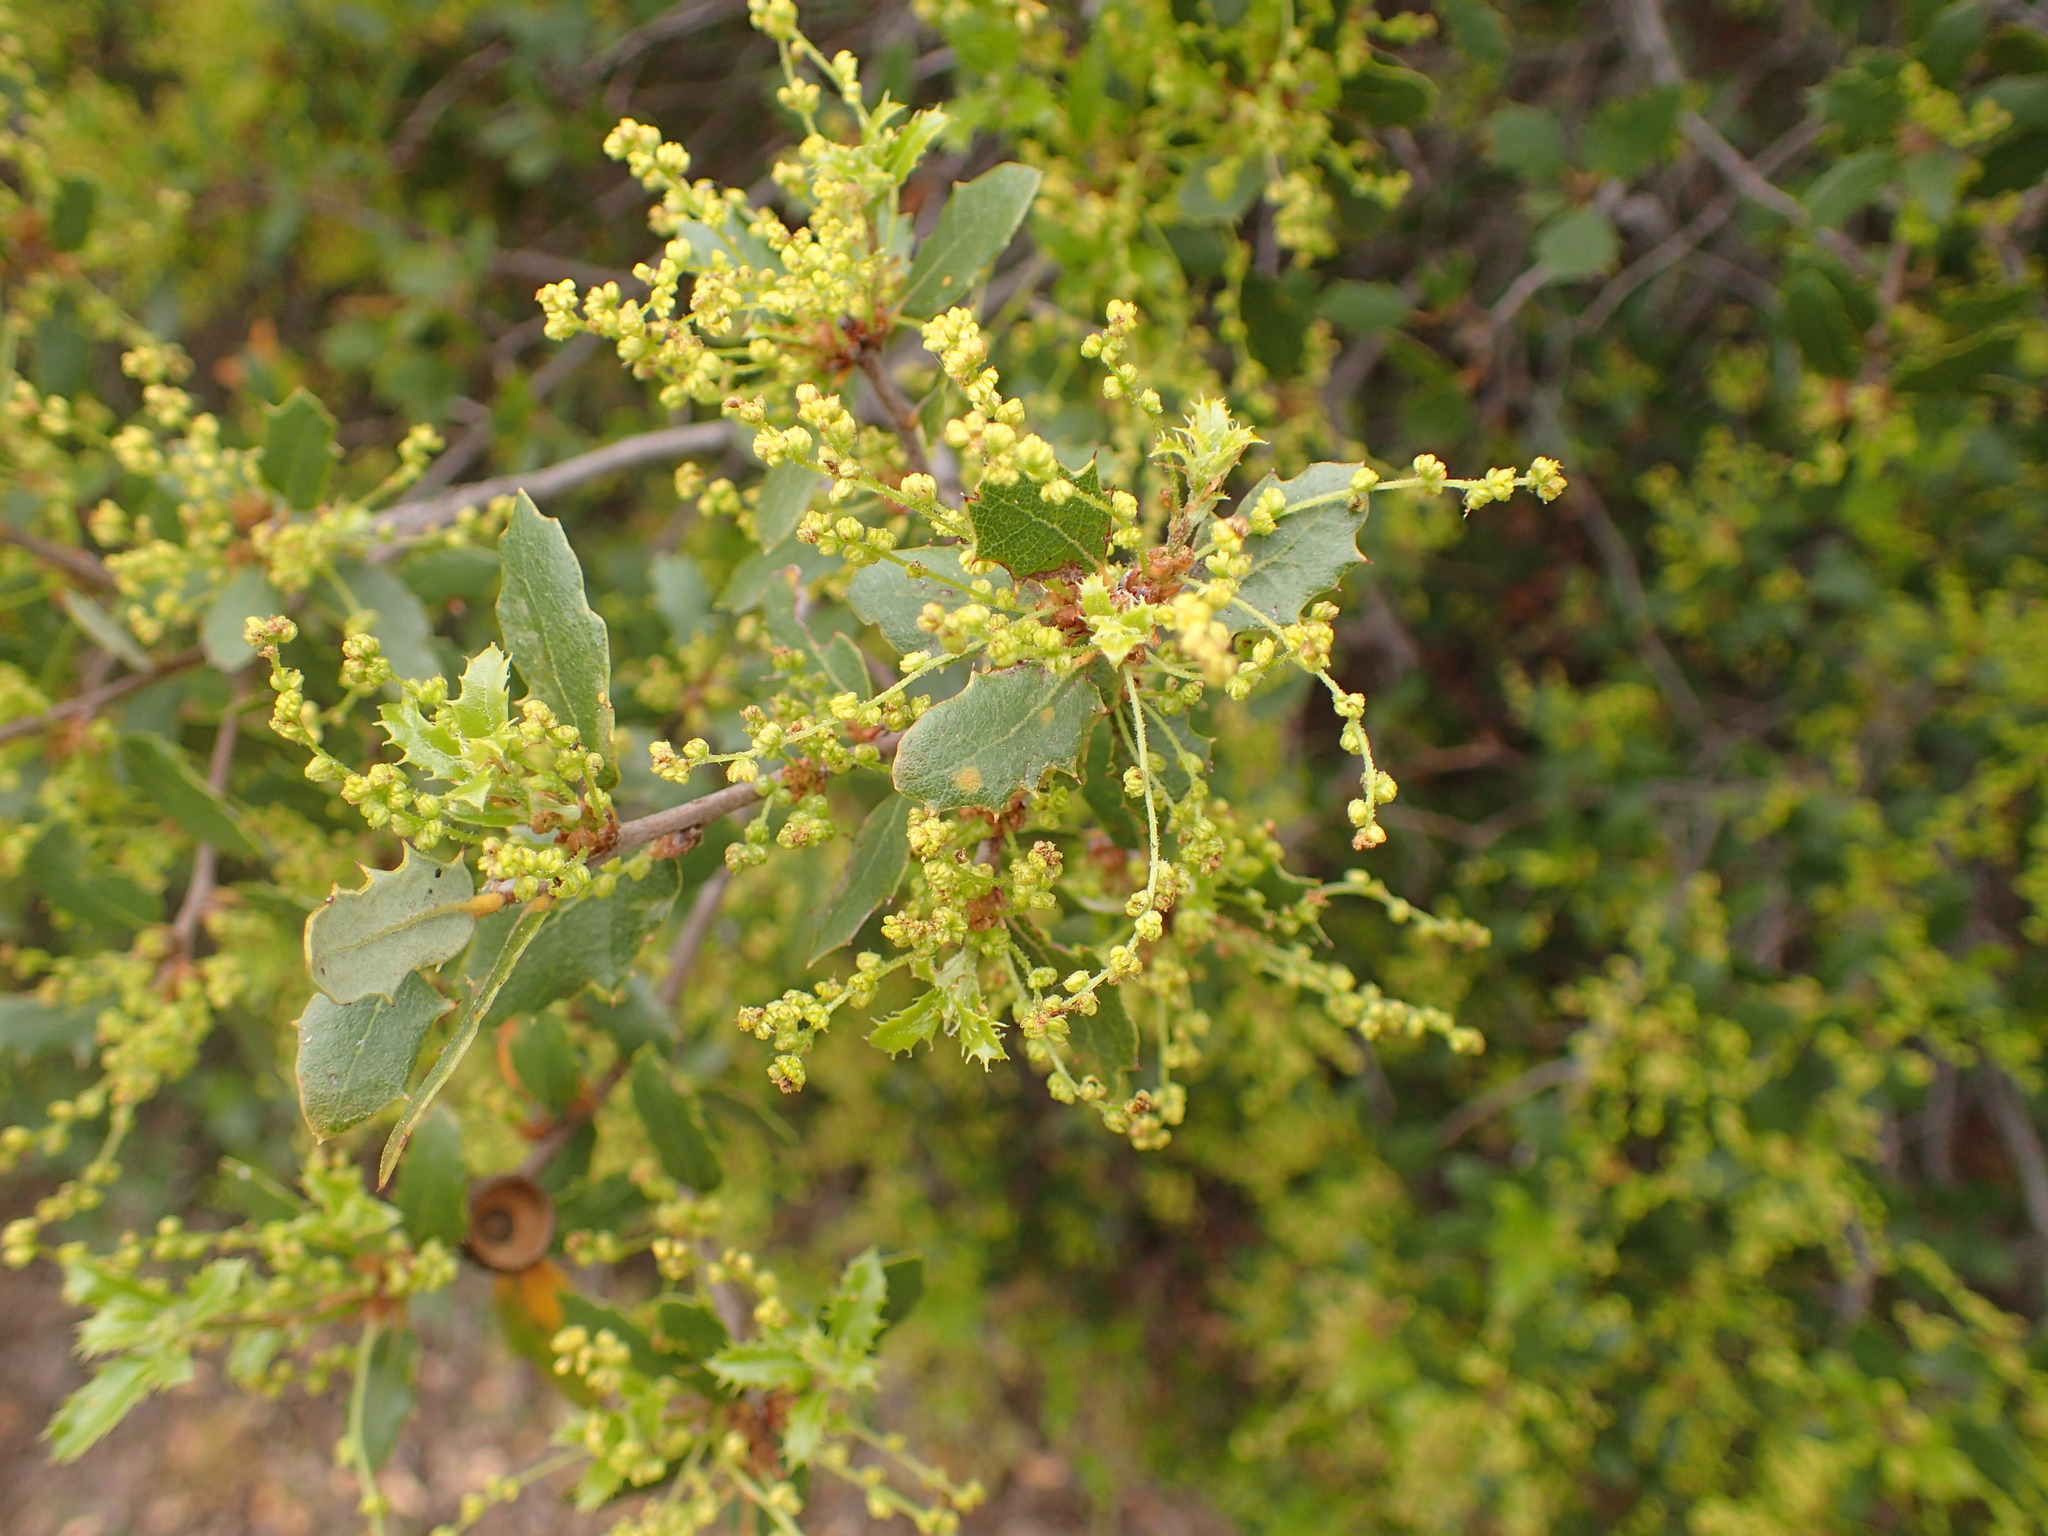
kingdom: Plantae
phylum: Tracheophyta
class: Magnoliopsida
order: Fagales
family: Fagaceae
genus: Quercus
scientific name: Quercus berberidifolia
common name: California scrub oak
